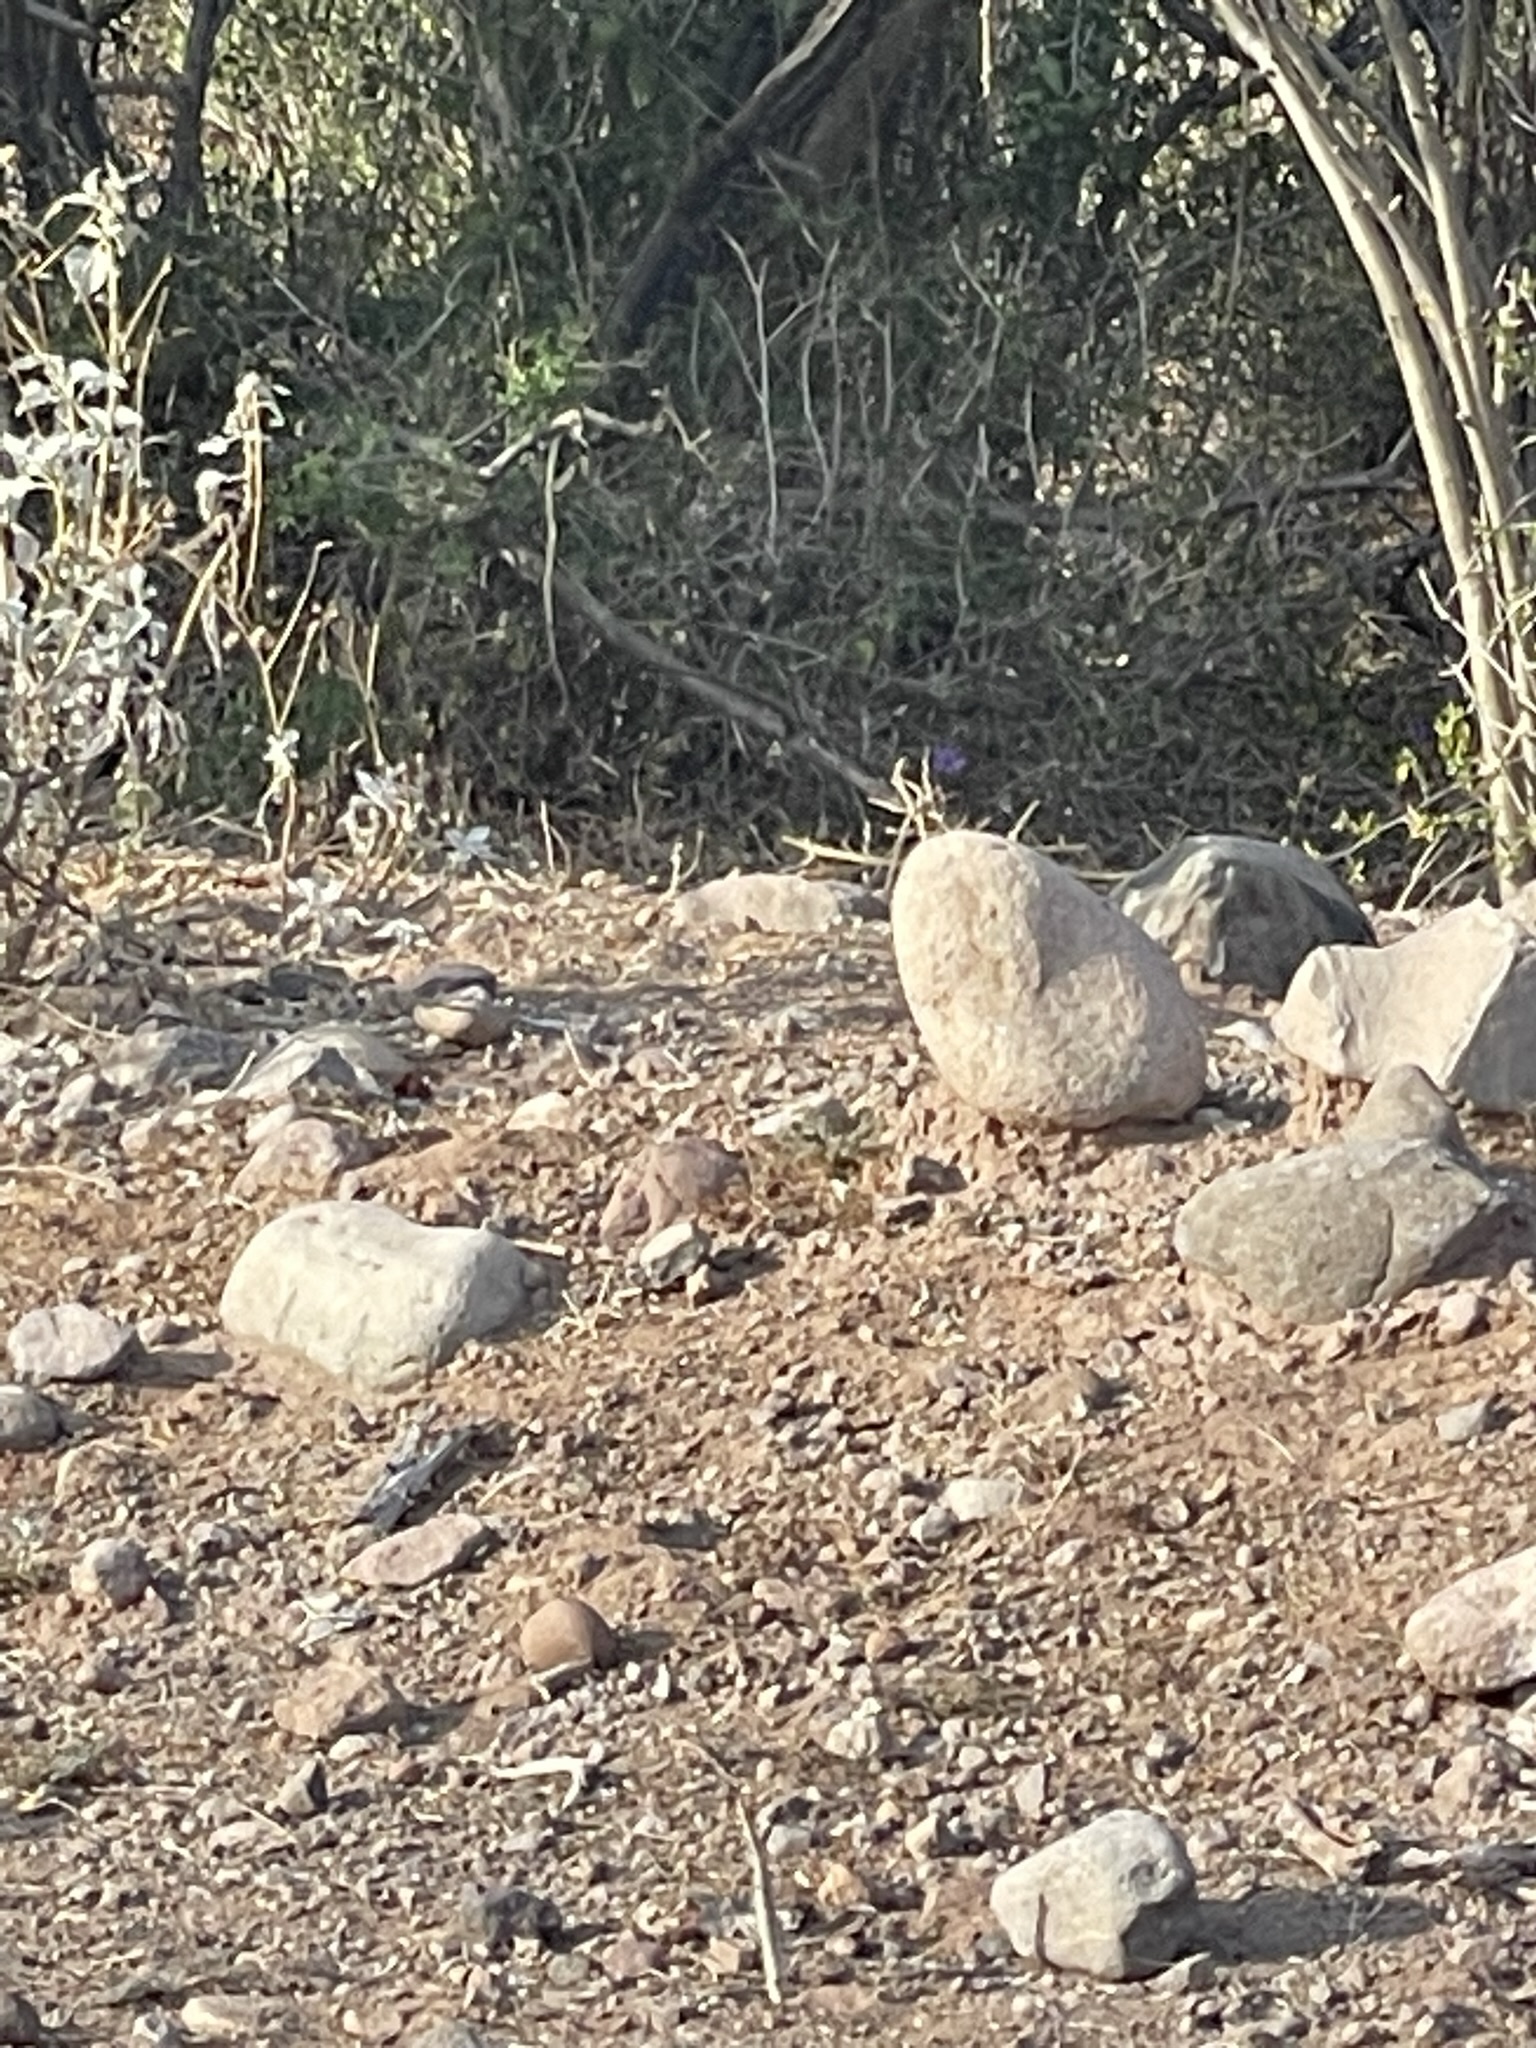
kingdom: Animalia
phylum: Chordata
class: Mammalia
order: Rodentia
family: Sciuridae
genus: Ammospermophilus
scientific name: Ammospermophilus leucurus
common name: White-tailed antelope squirrel
